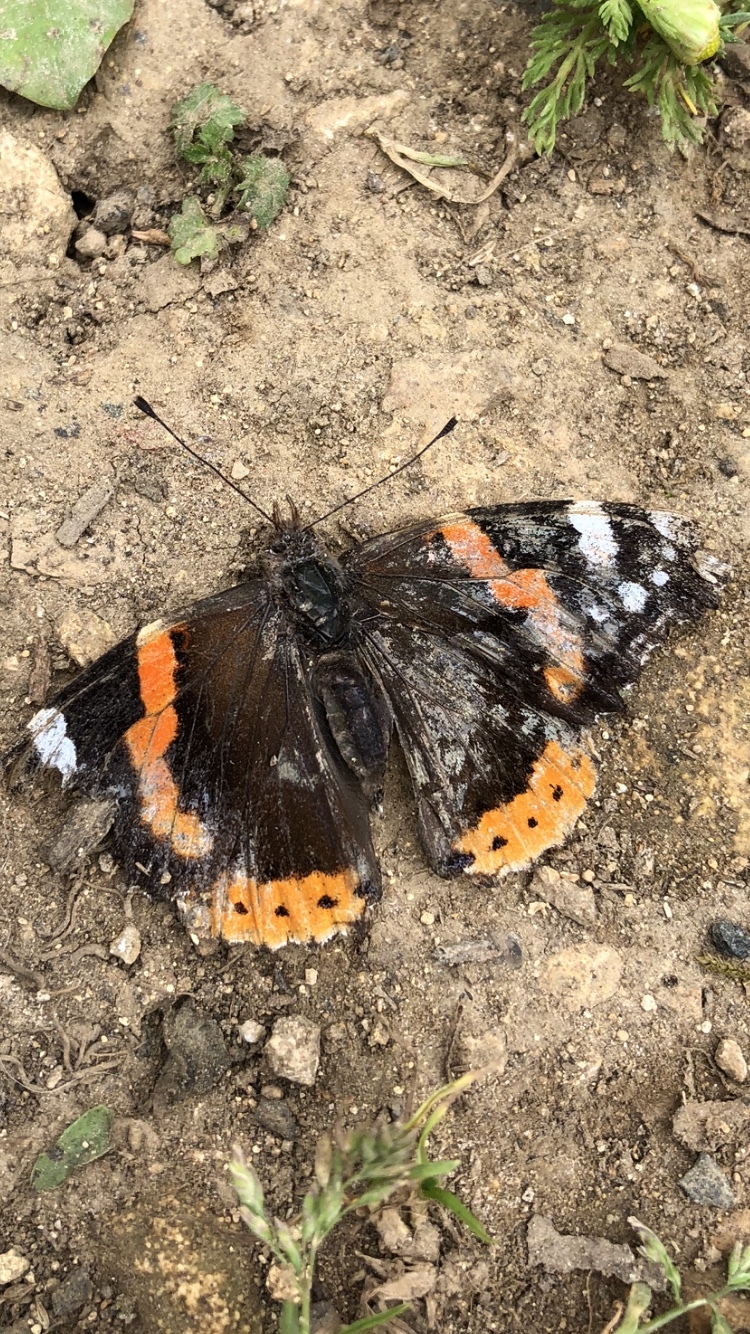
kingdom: Animalia
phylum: Arthropoda
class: Insecta
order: Lepidoptera
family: Nymphalidae
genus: Vanessa
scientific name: Vanessa atalanta
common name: Red admiral
